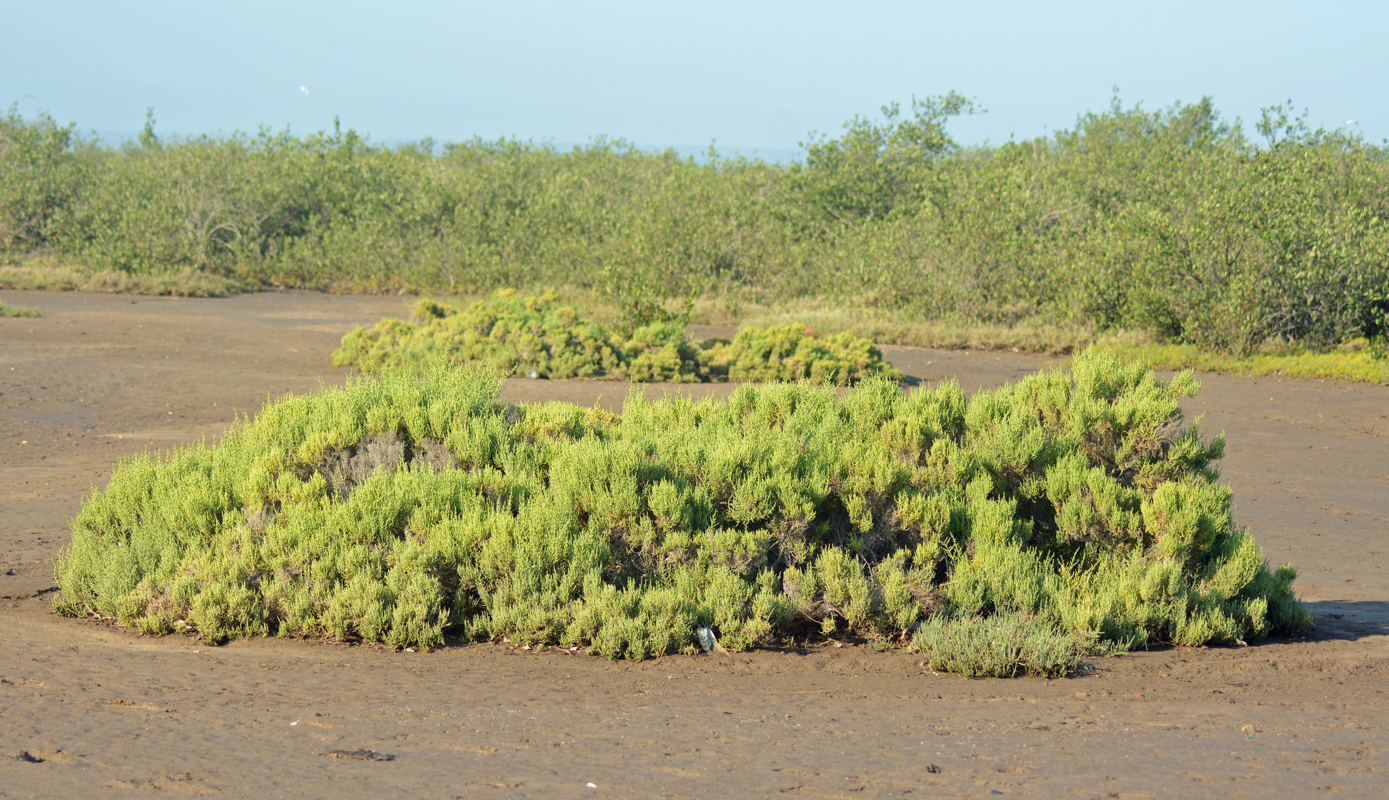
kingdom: Plantae
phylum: Tracheophyta
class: Magnoliopsida
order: Caryophyllales
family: Amaranthaceae
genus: Allenrolfea
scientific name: Allenrolfea occidentalis
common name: Iodine-bush
